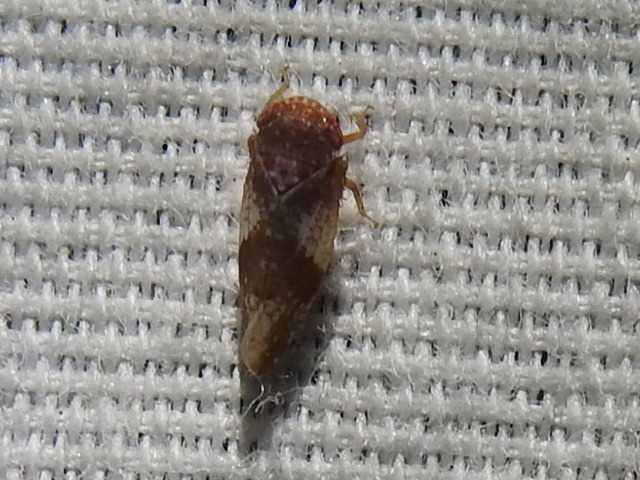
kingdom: Animalia
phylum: Arthropoda
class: Insecta
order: Hemiptera
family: Cicadellidae
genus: Norvellina
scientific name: Norvellina helenae
